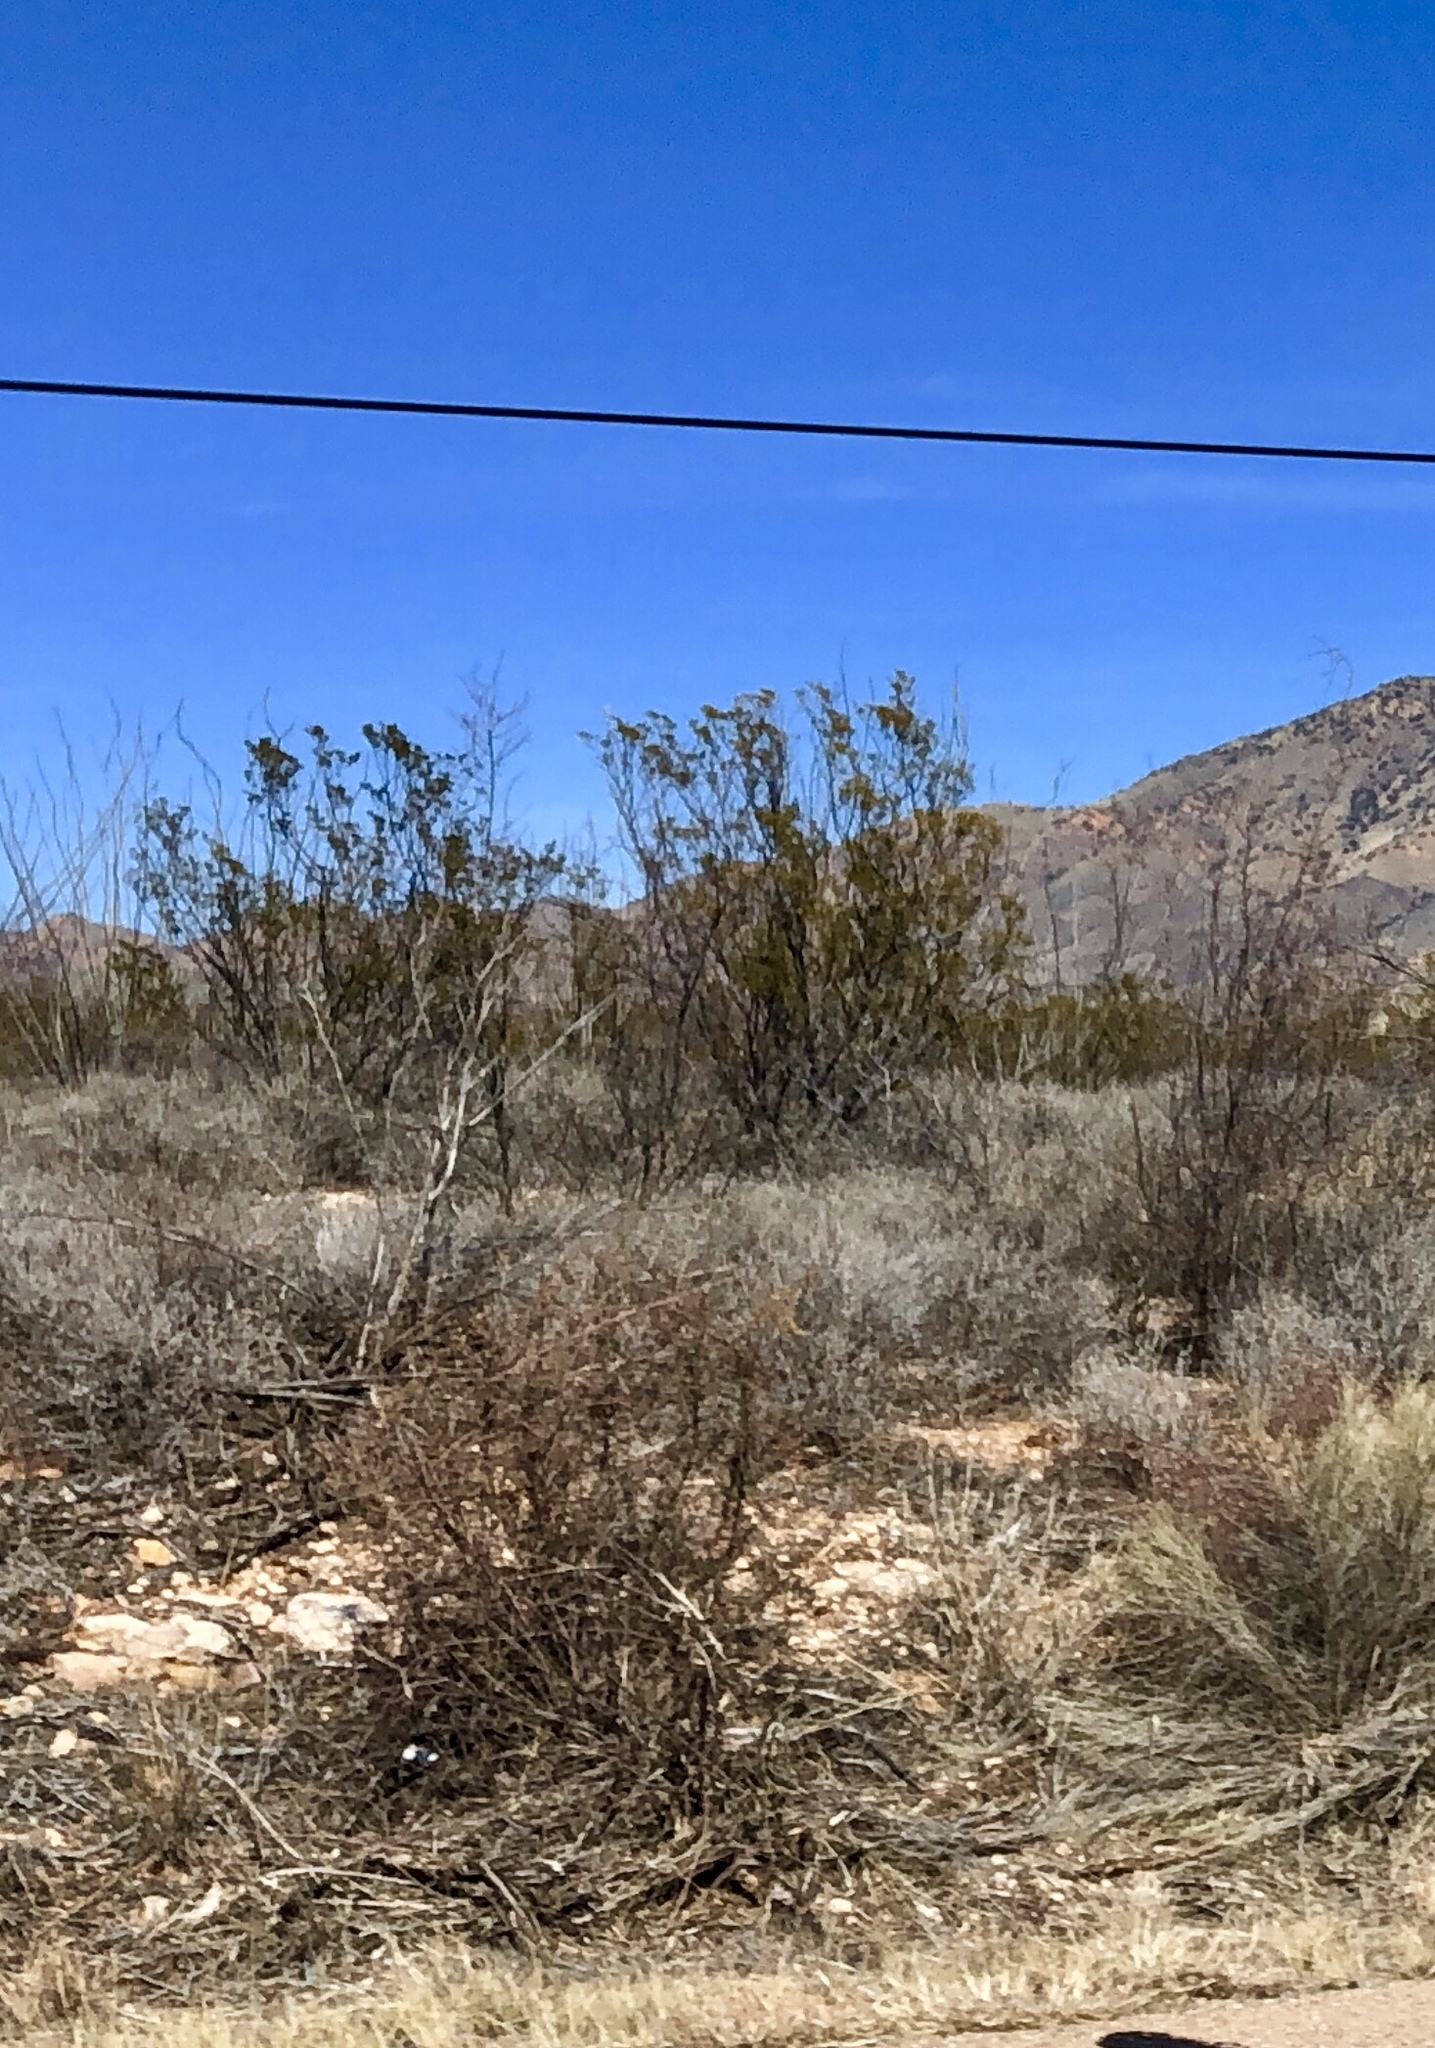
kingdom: Plantae
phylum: Tracheophyta
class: Magnoliopsida
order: Zygophyllales
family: Zygophyllaceae
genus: Larrea
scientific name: Larrea tridentata
